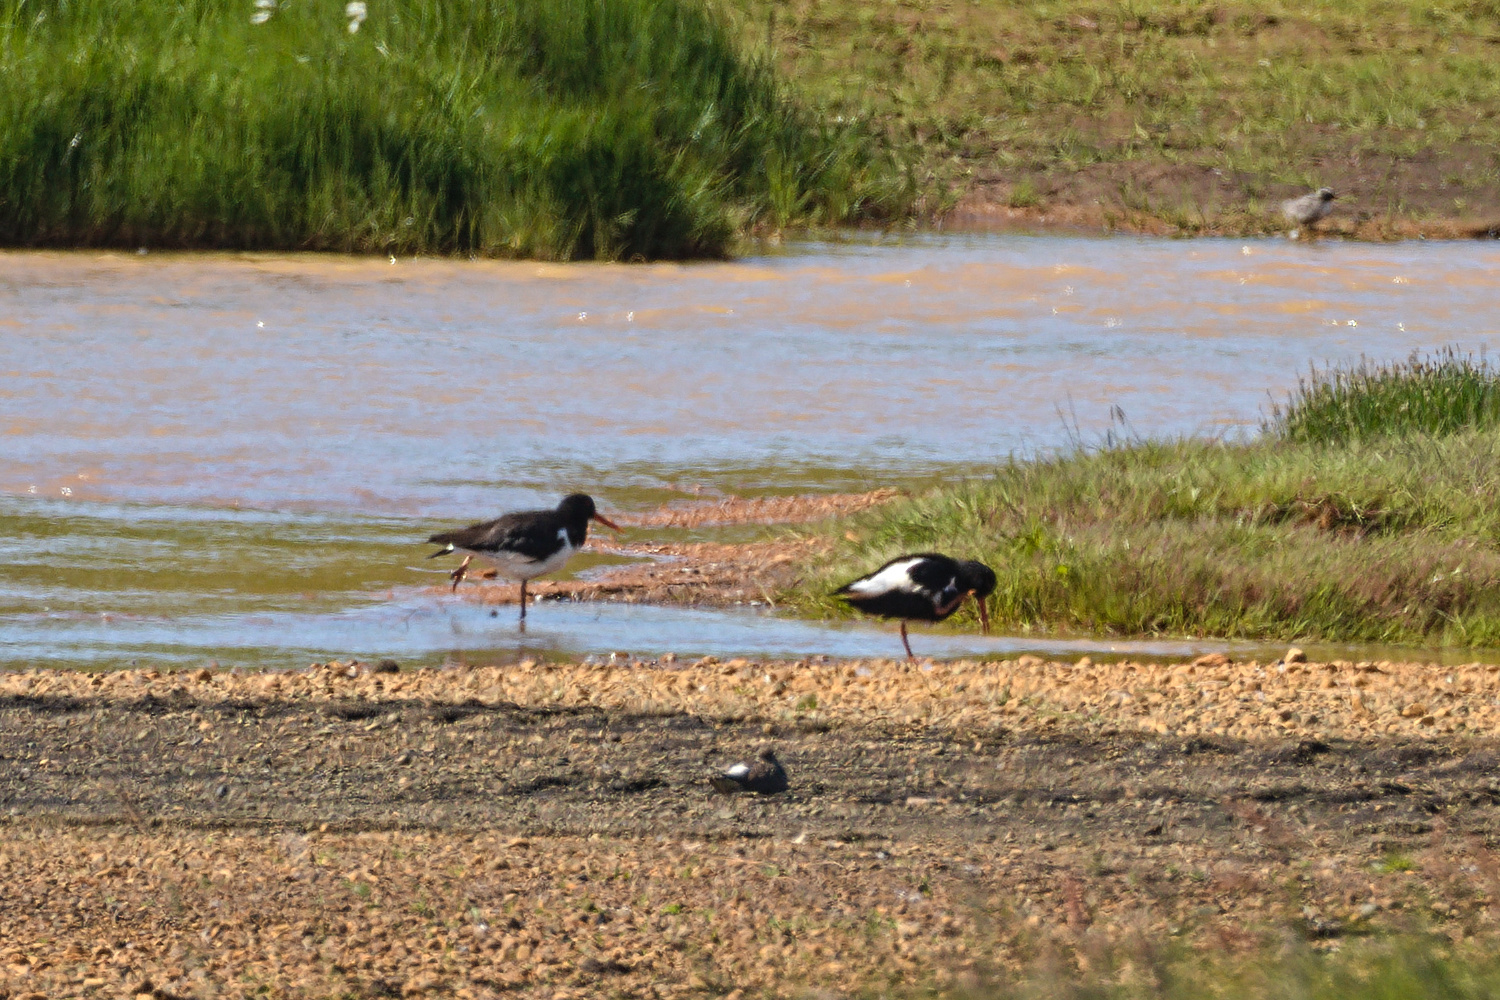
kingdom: Animalia
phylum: Chordata
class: Aves
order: Charadriiformes
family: Haematopodidae
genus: Haematopus
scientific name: Haematopus ostralegus
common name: Eurasian oystercatcher
